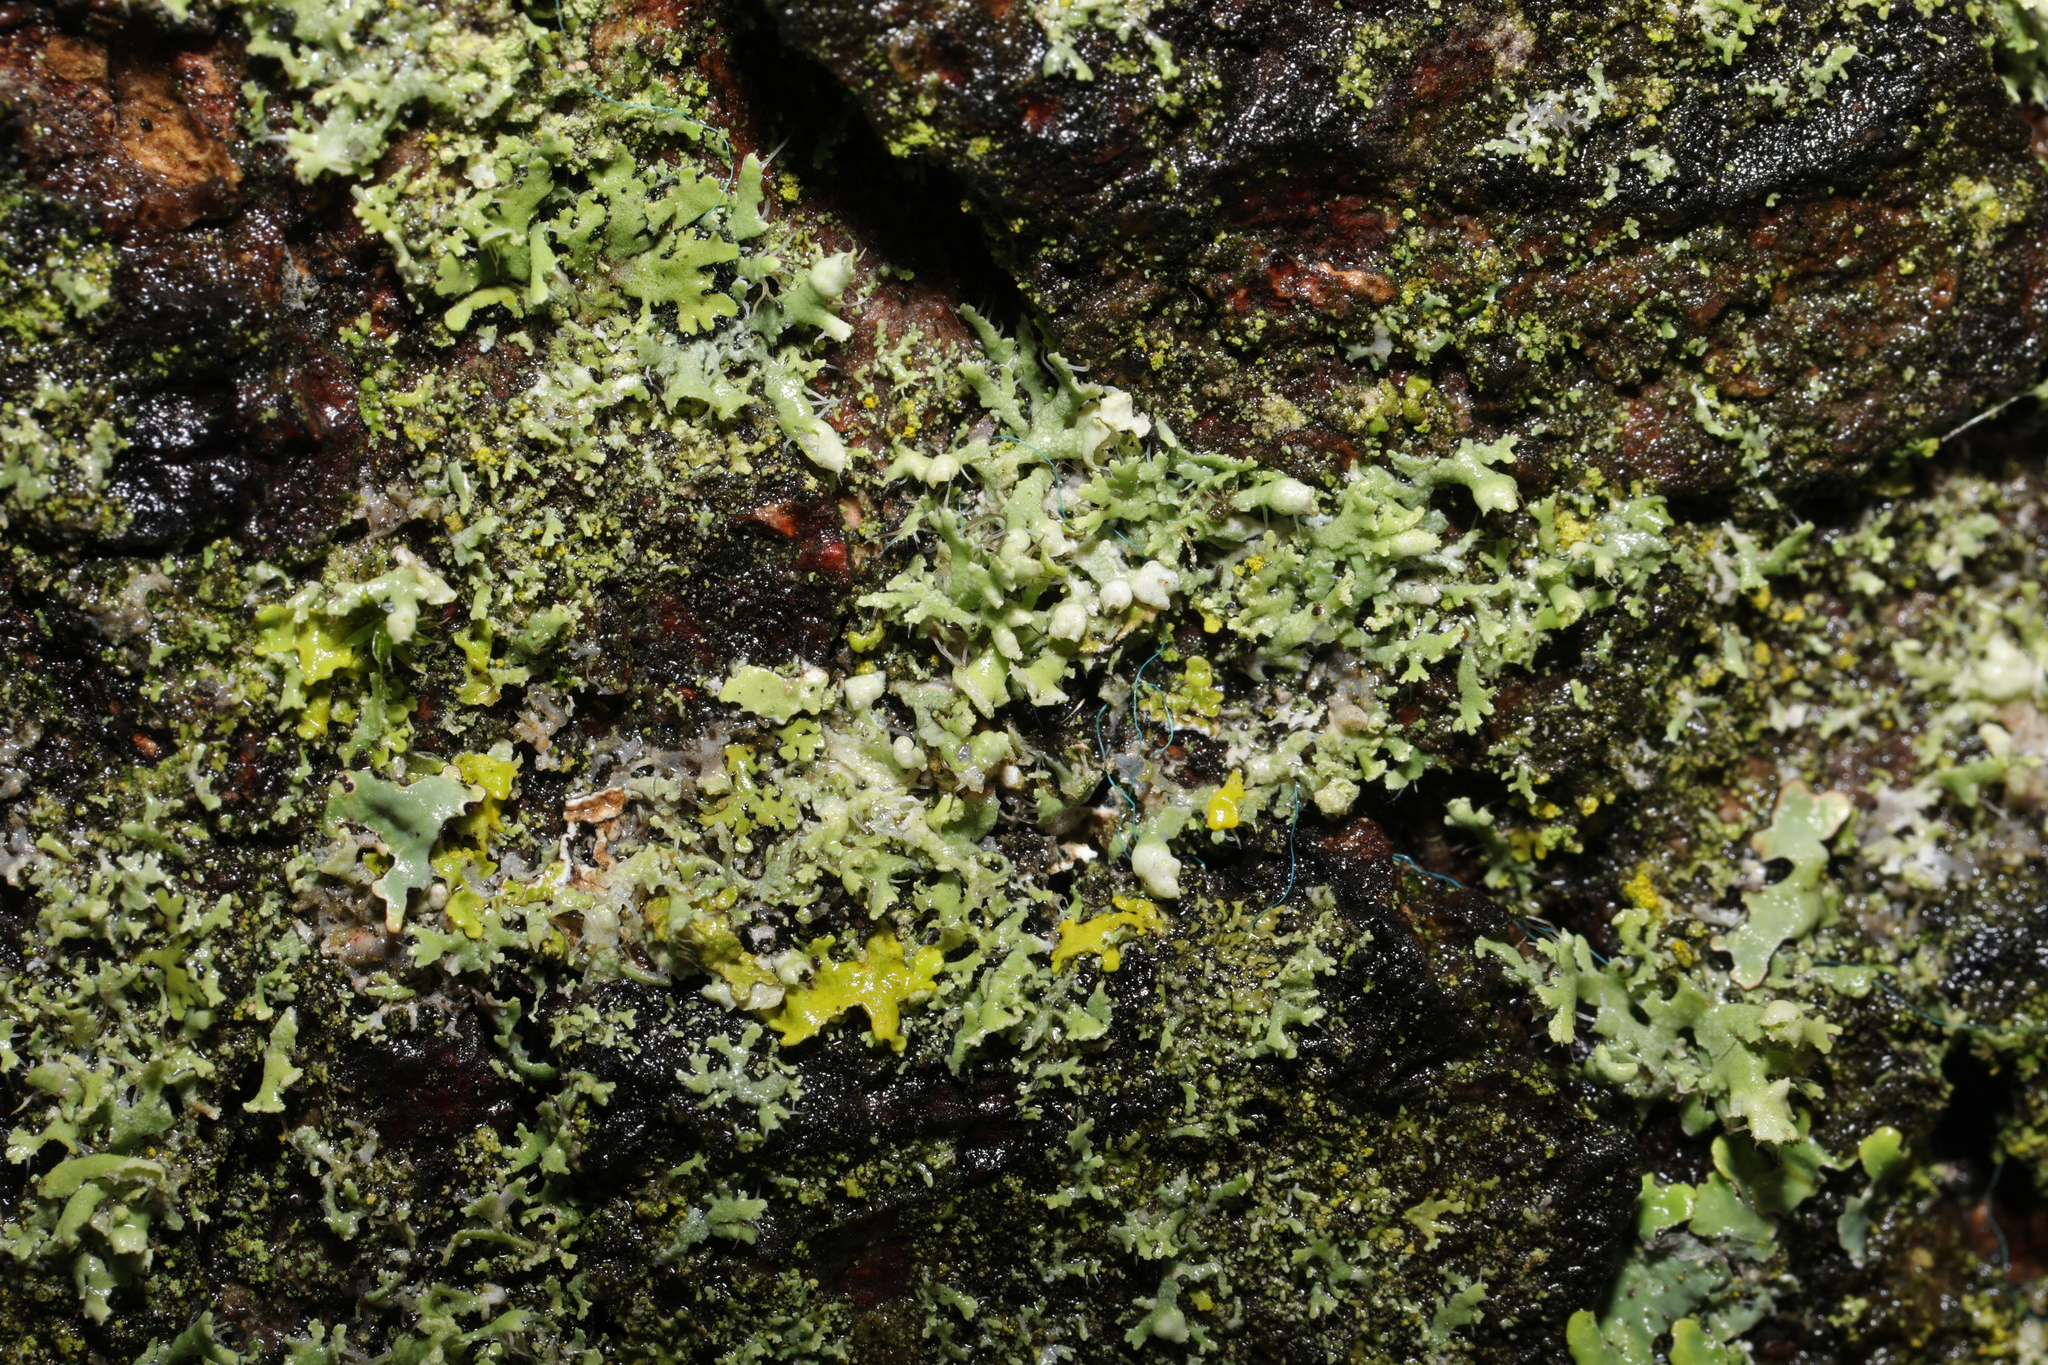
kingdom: Fungi
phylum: Ascomycota
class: Lecanoromycetes
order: Caliciales
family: Physciaceae
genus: Physcia
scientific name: Physcia adscendens
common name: Hooded rosette lichen
